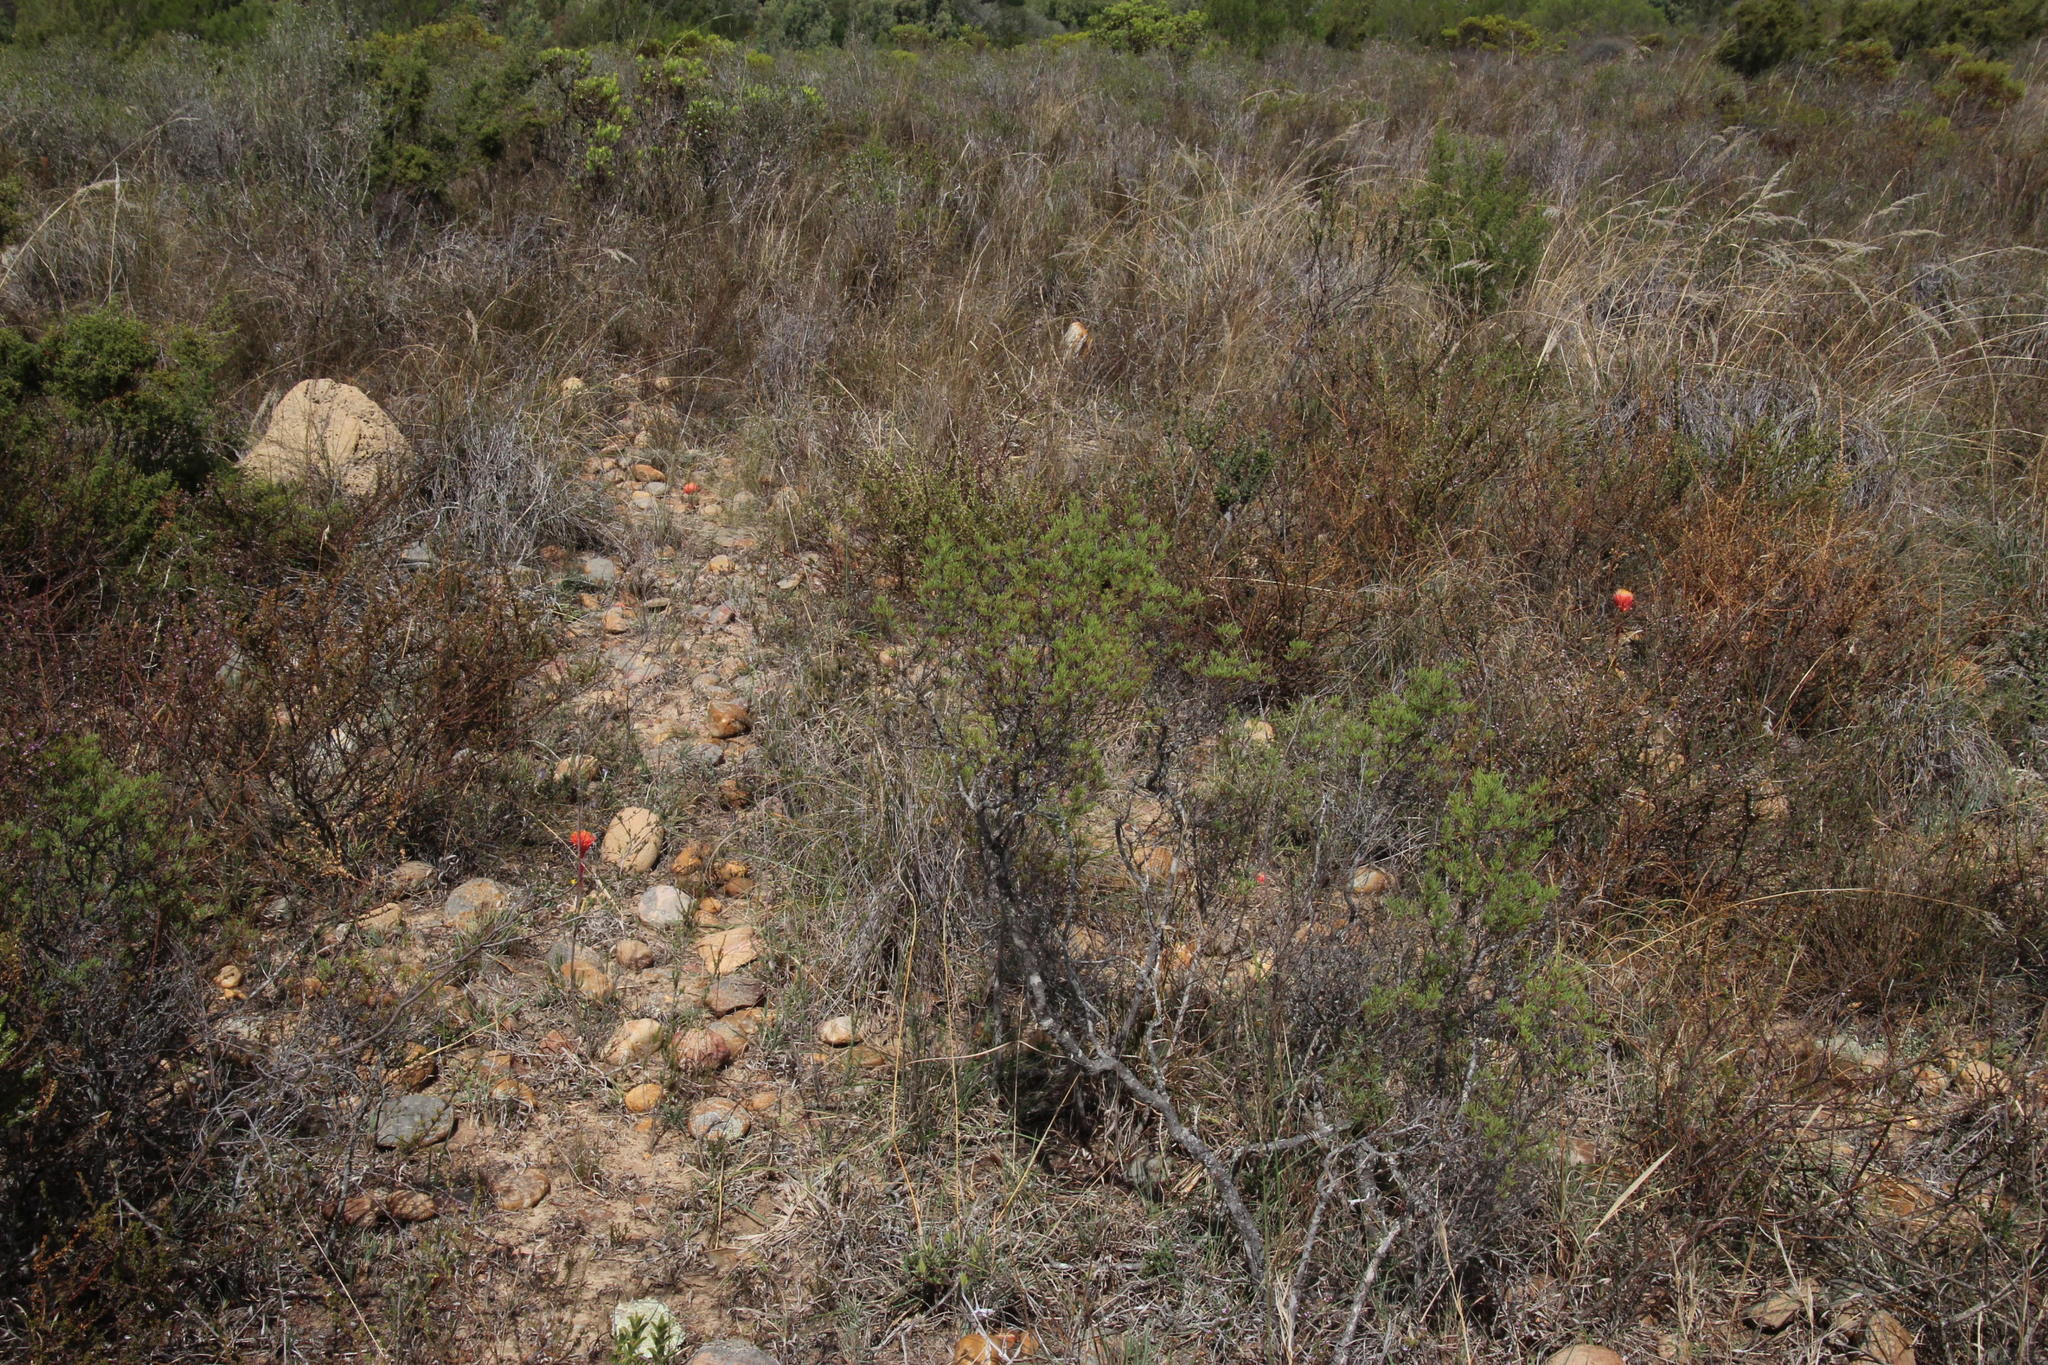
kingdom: Plantae
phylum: Tracheophyta
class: Liliopsida
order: Asparagales
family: Amaryllidaceae
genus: Haemanthus
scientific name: Haemanthus sanguineus
